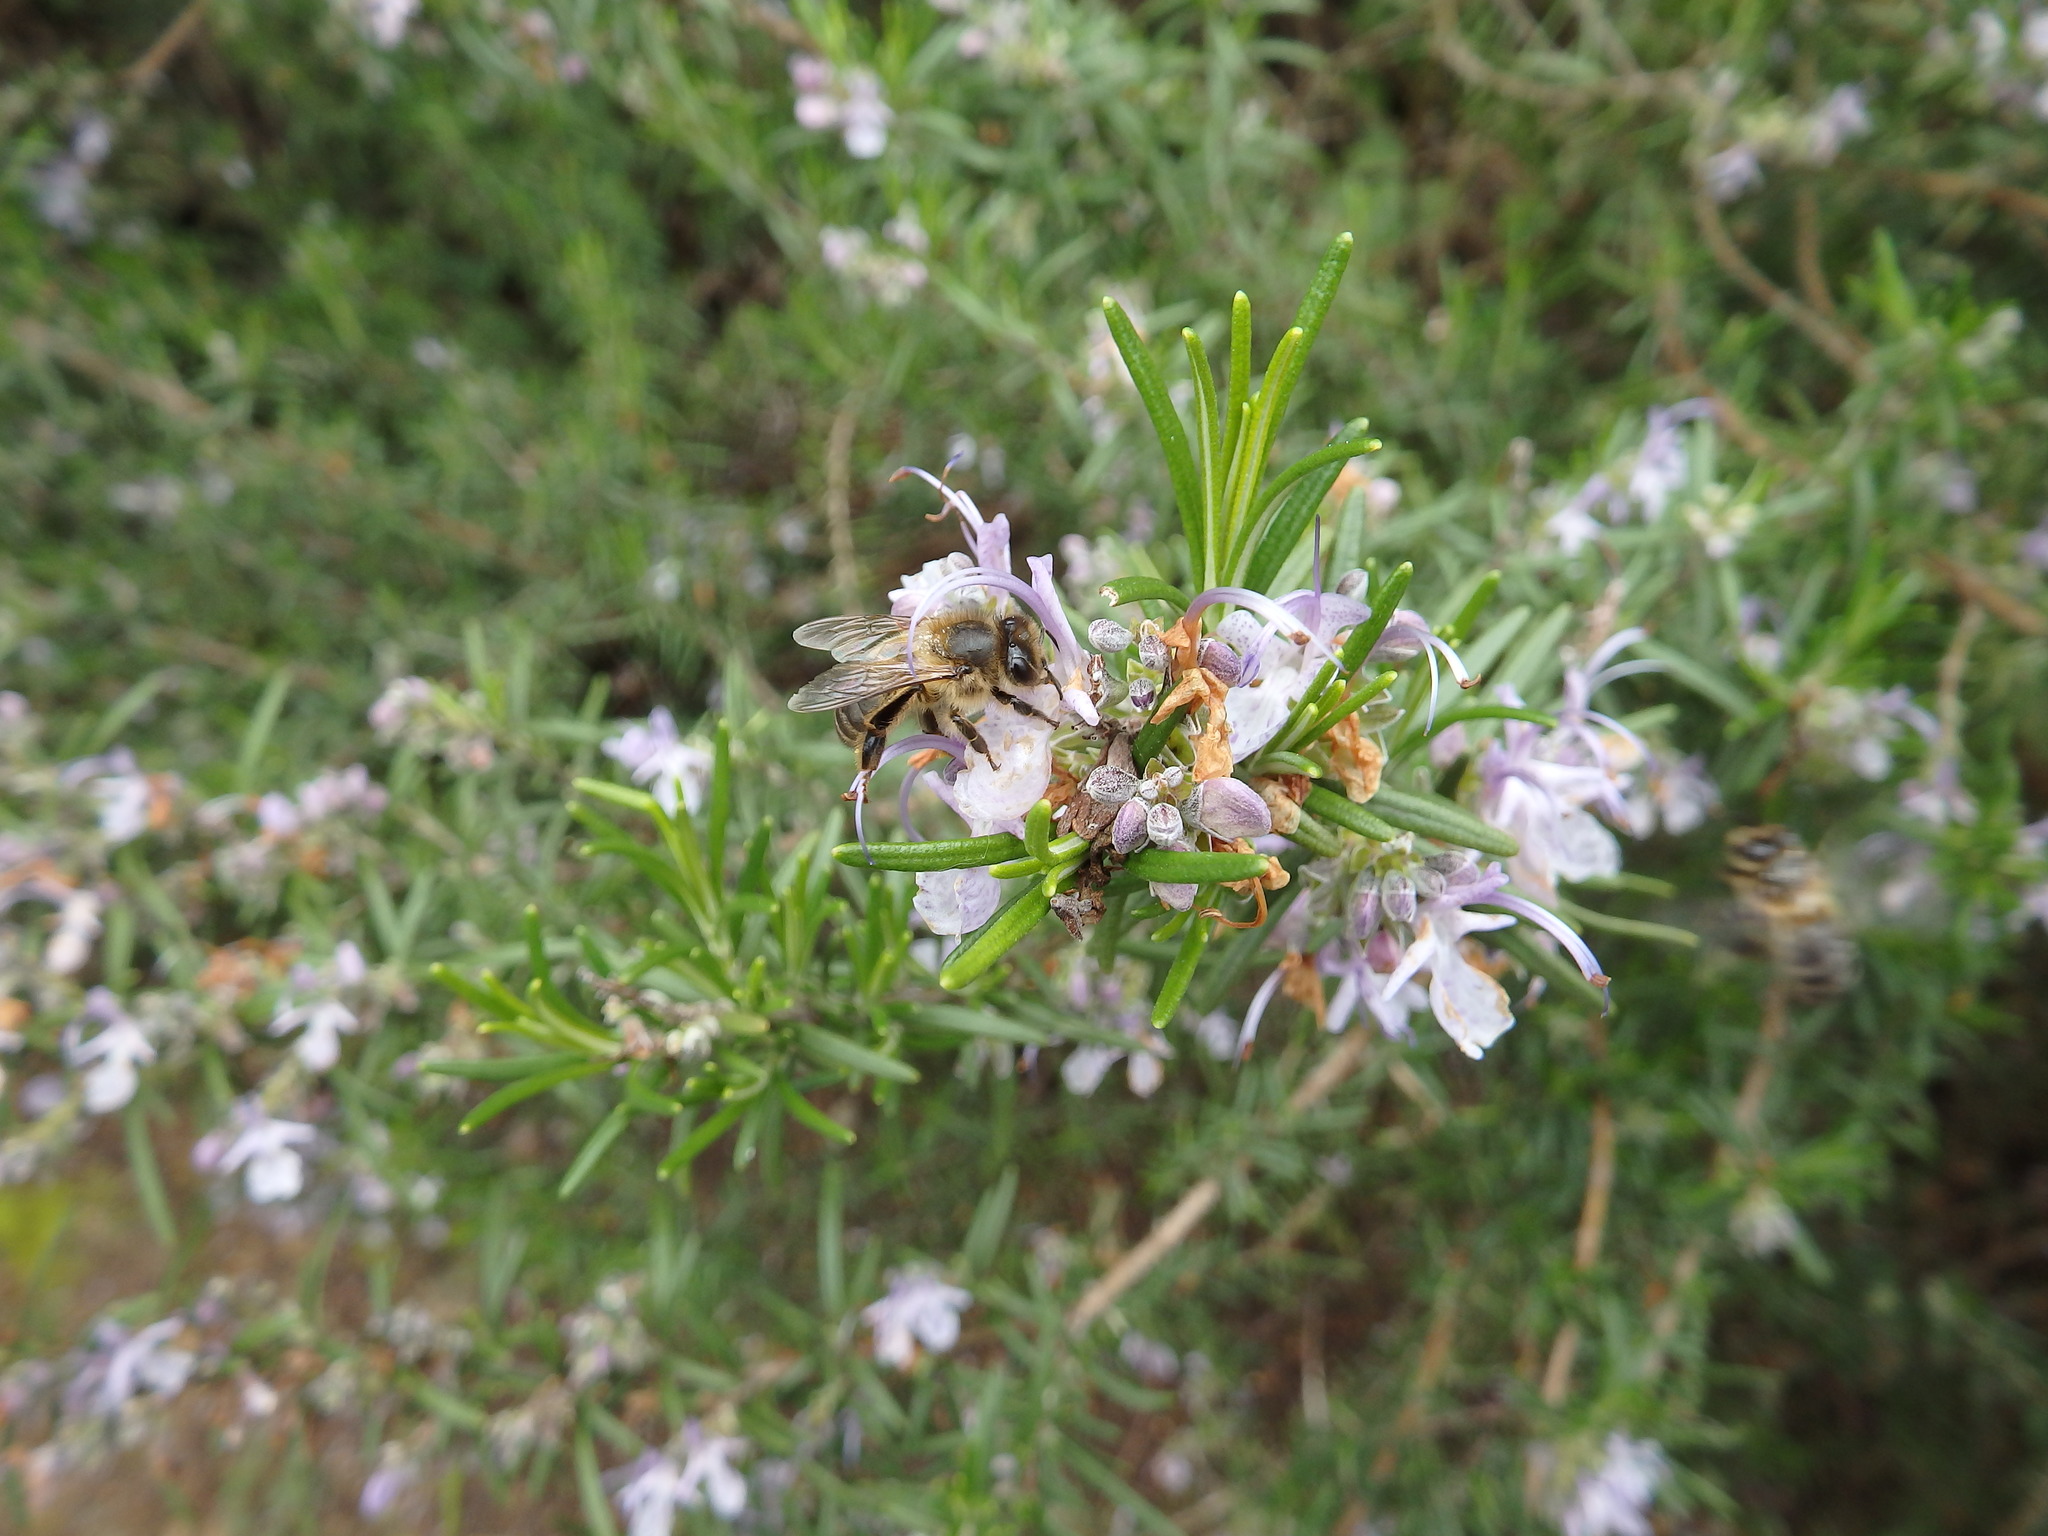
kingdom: Animalia
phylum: Arthropoda
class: Insecta
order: Hymenoptera
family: Apidae
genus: Apis
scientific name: Apis mellifera
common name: Honey bee
